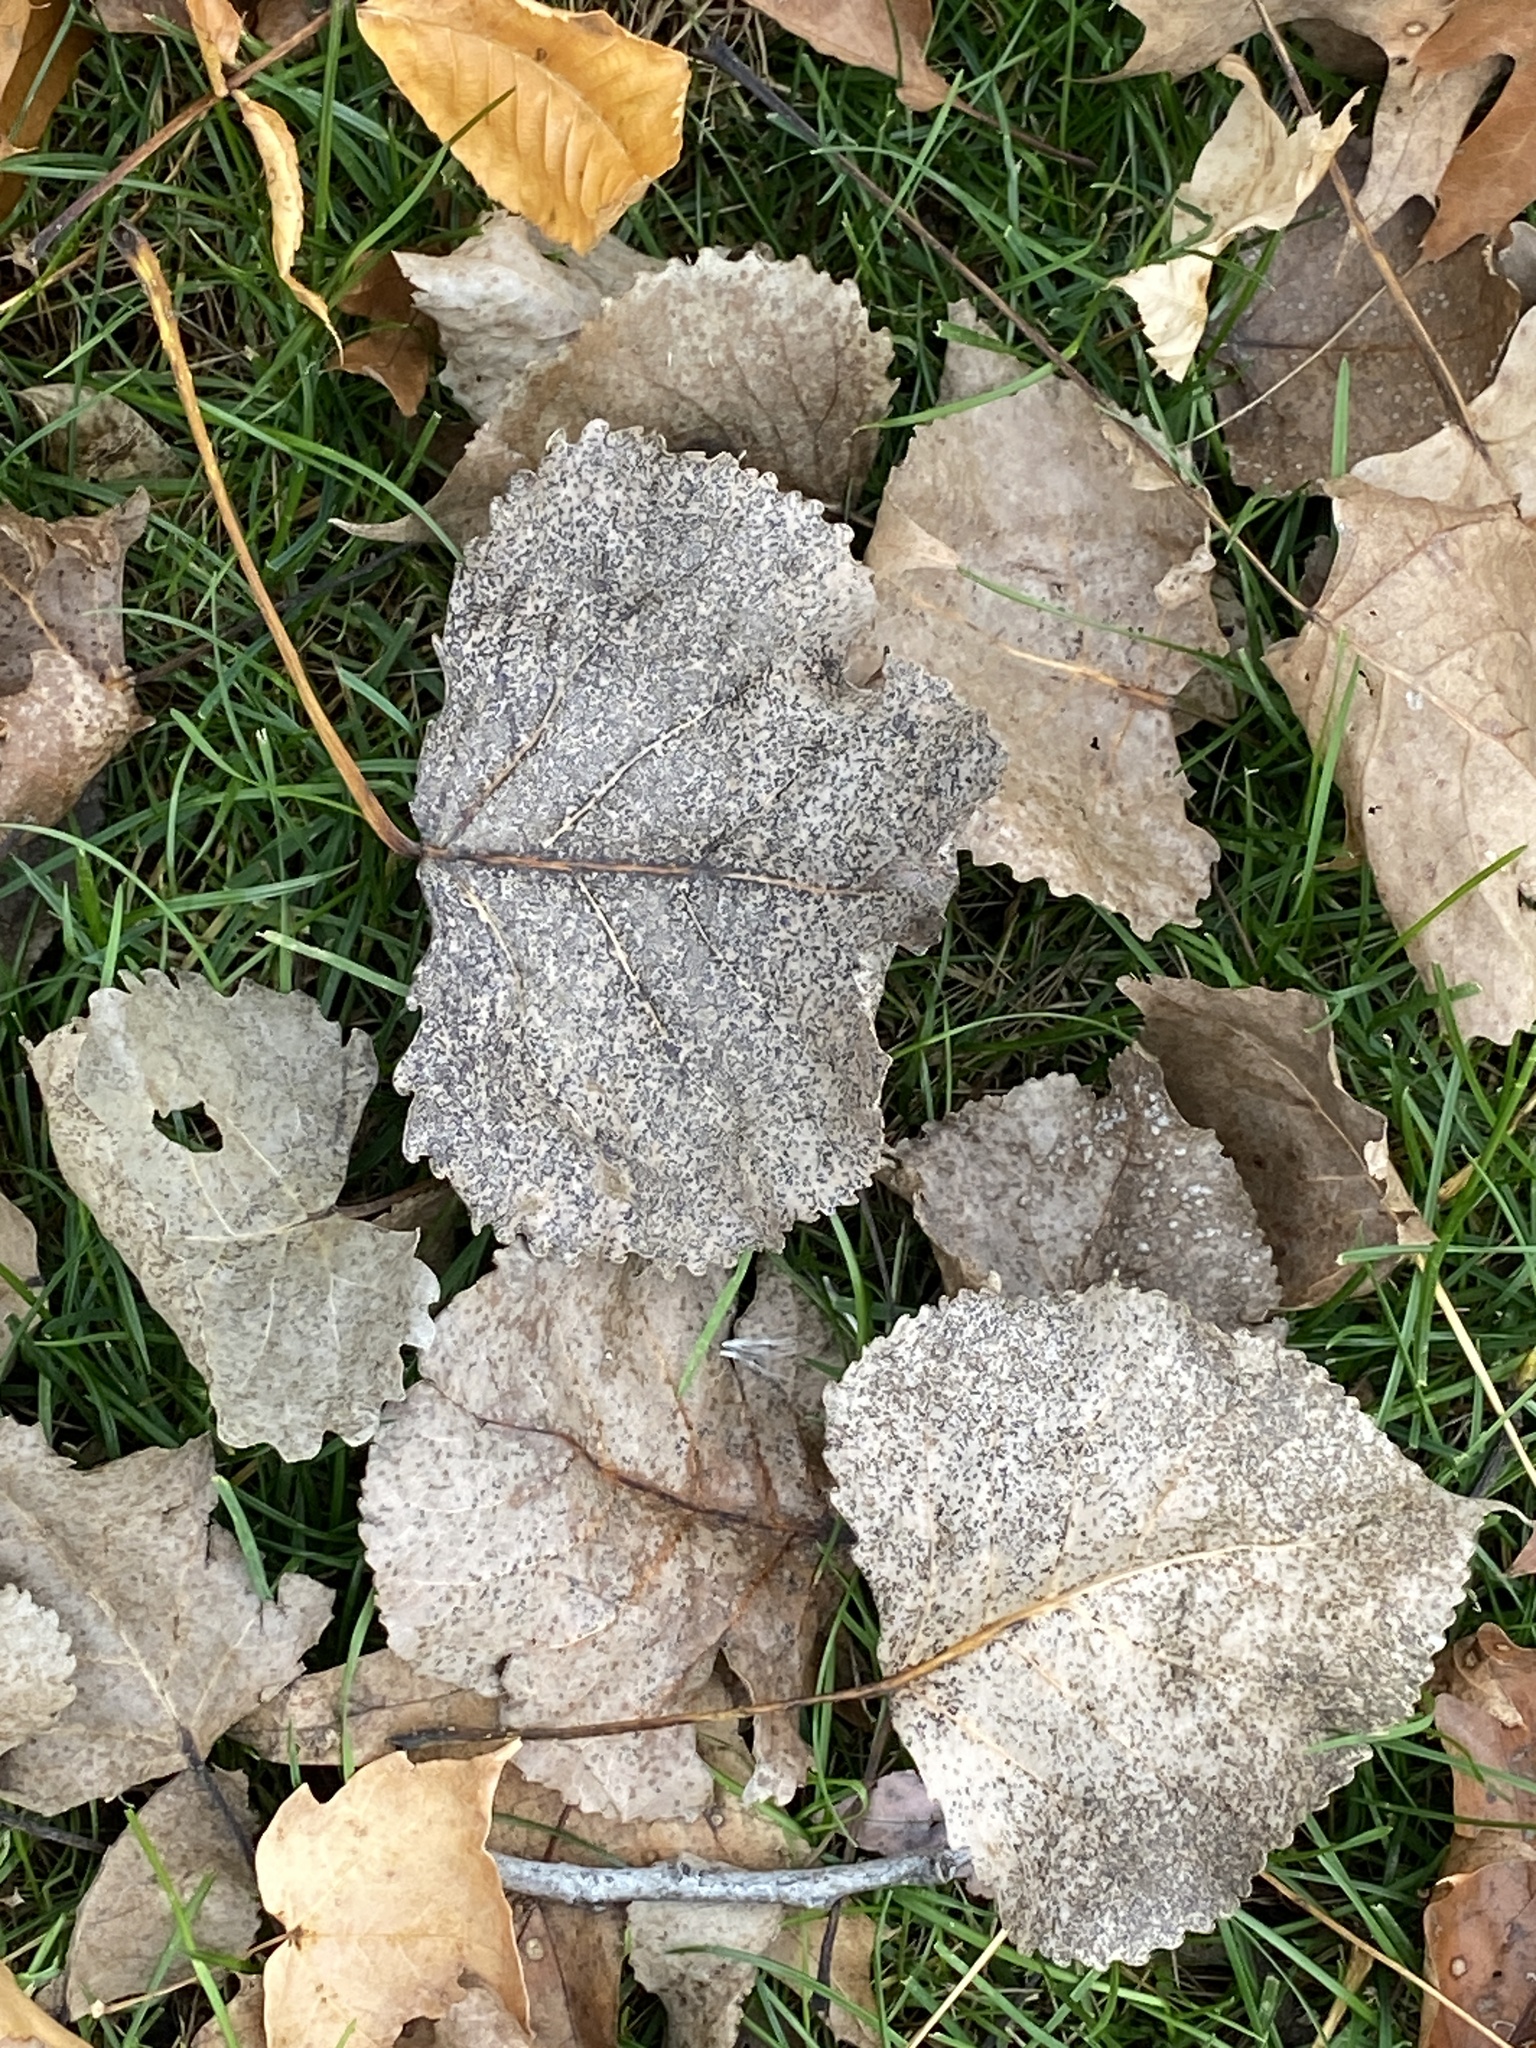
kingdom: Plantae
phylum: Tracheophyta
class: Magnoliopsida
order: Malpighiales
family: Salicaceae
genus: Populus
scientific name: Populus deltoides
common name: Eastern cottonwood
